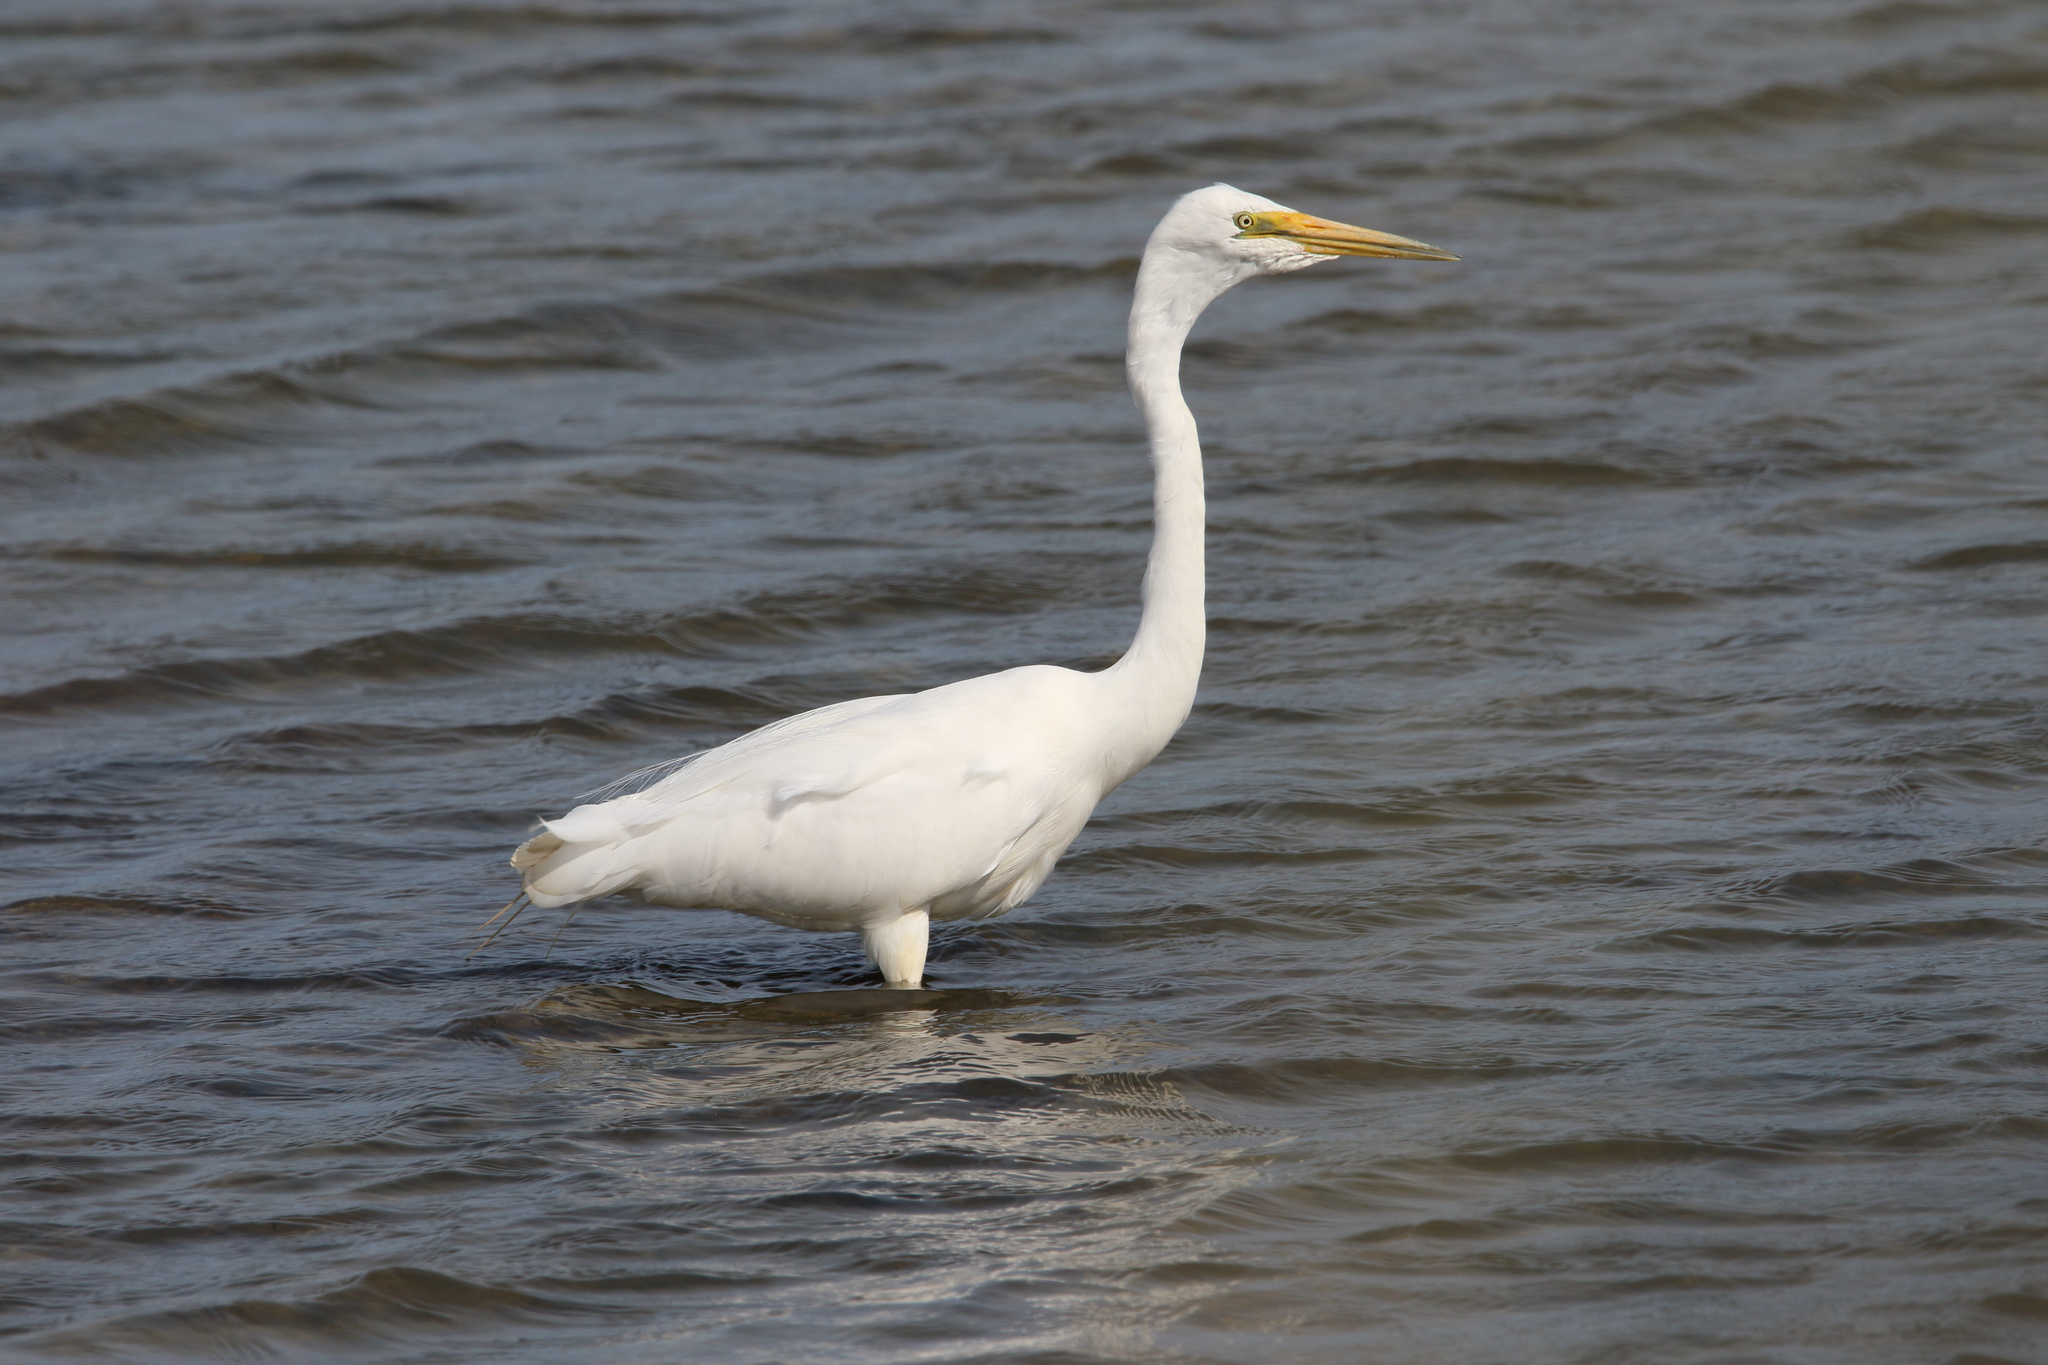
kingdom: Animalia
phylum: Chordata
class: Aves
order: Pelecaniformes
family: Ardeidae
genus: Ardea
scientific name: Ardea modesta
